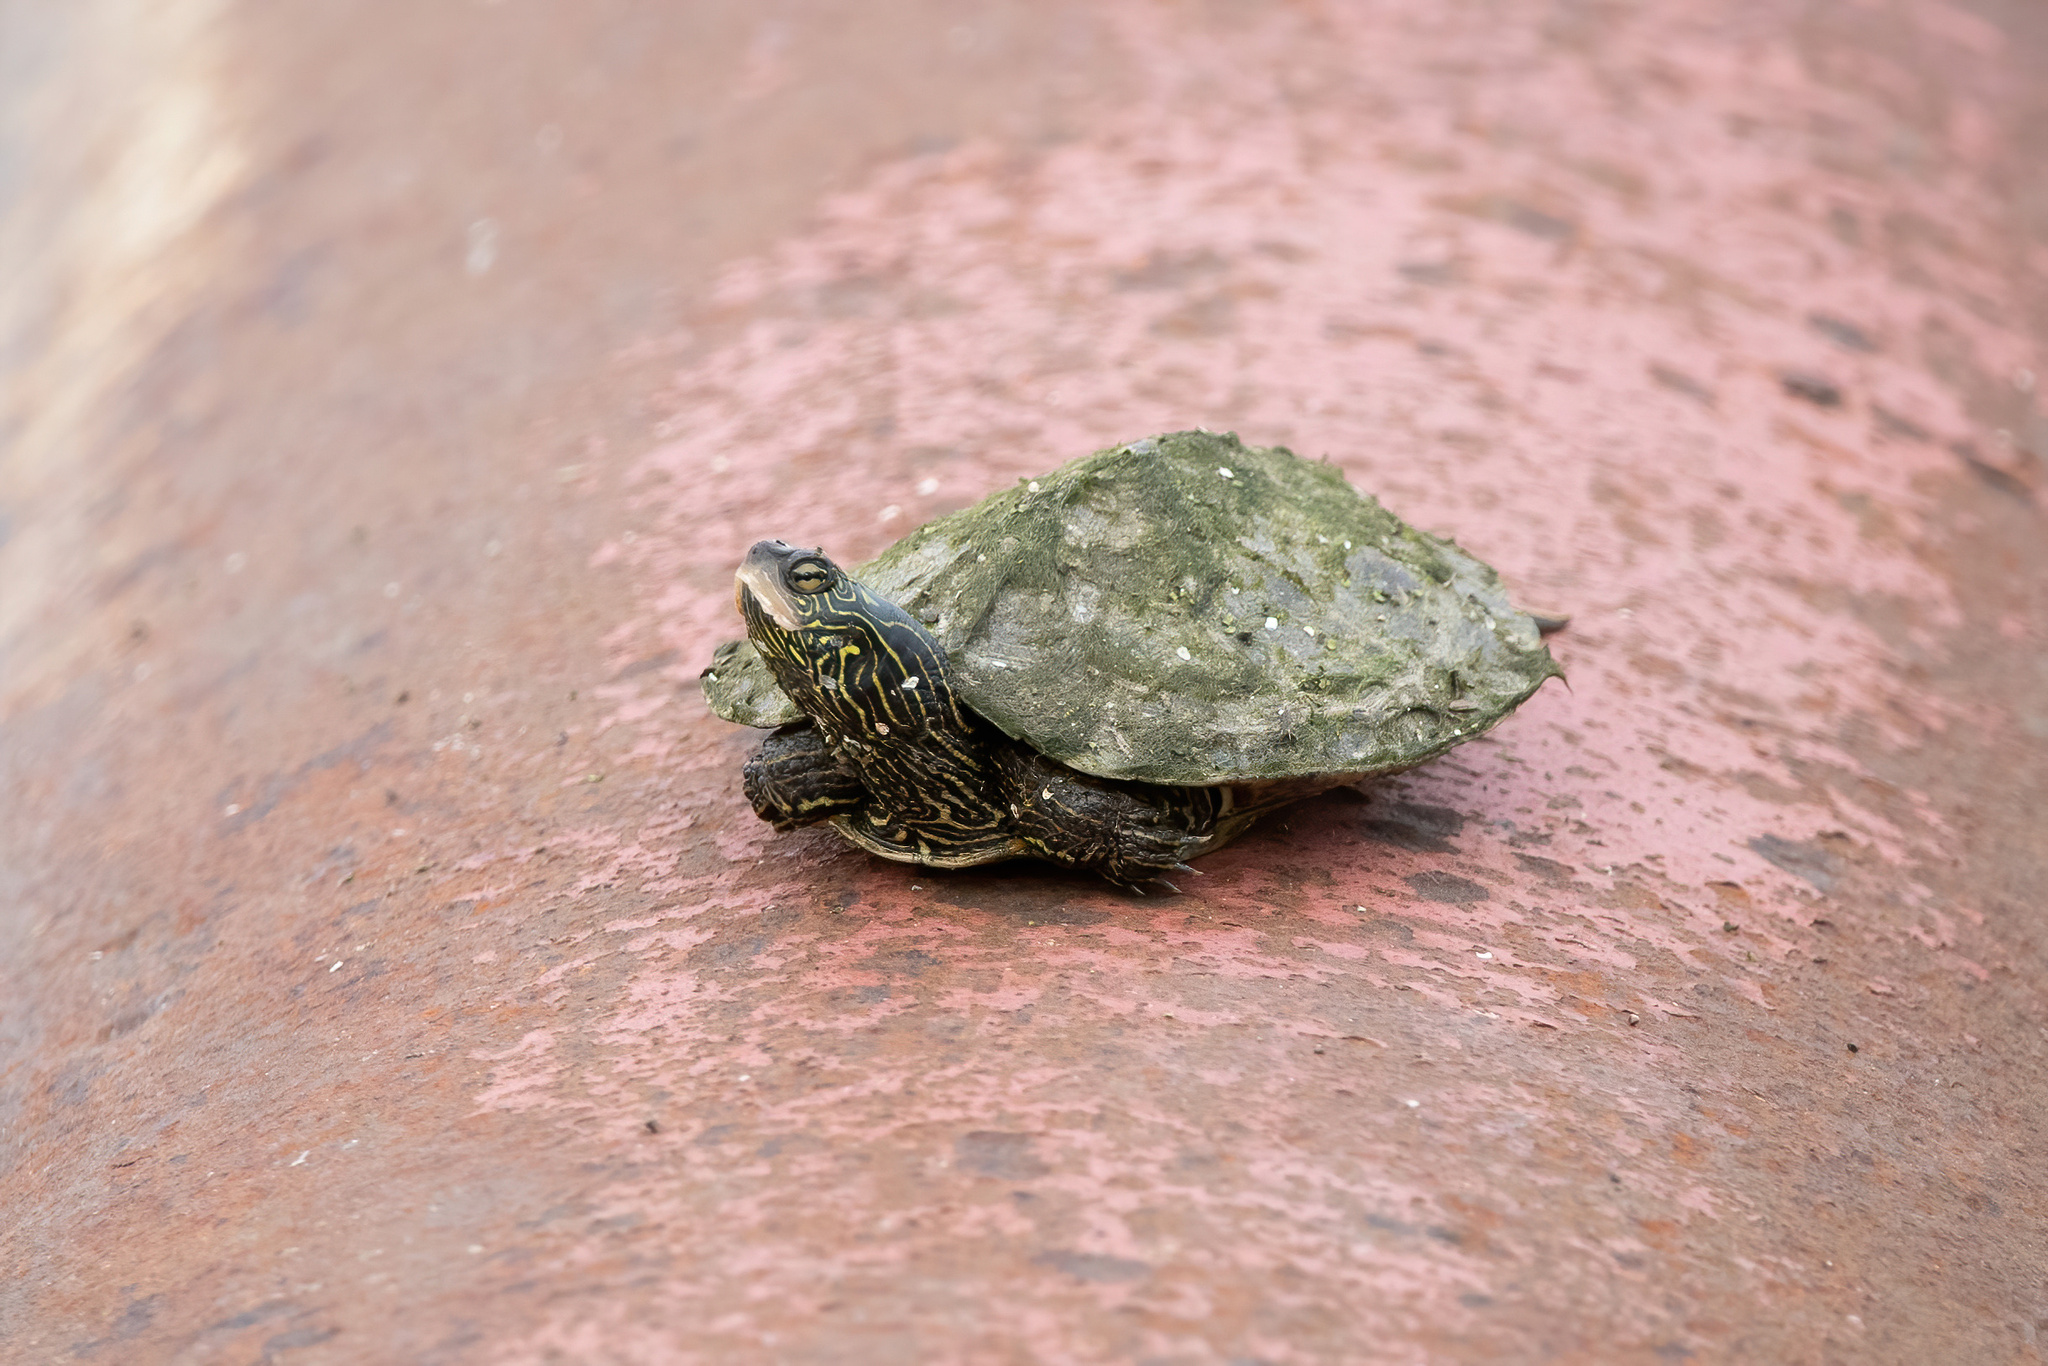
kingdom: Animalia
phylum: Chordata
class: Testudines
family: Emydidae
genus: Graptemys
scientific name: Graptemys geographica
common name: Common map turtle
